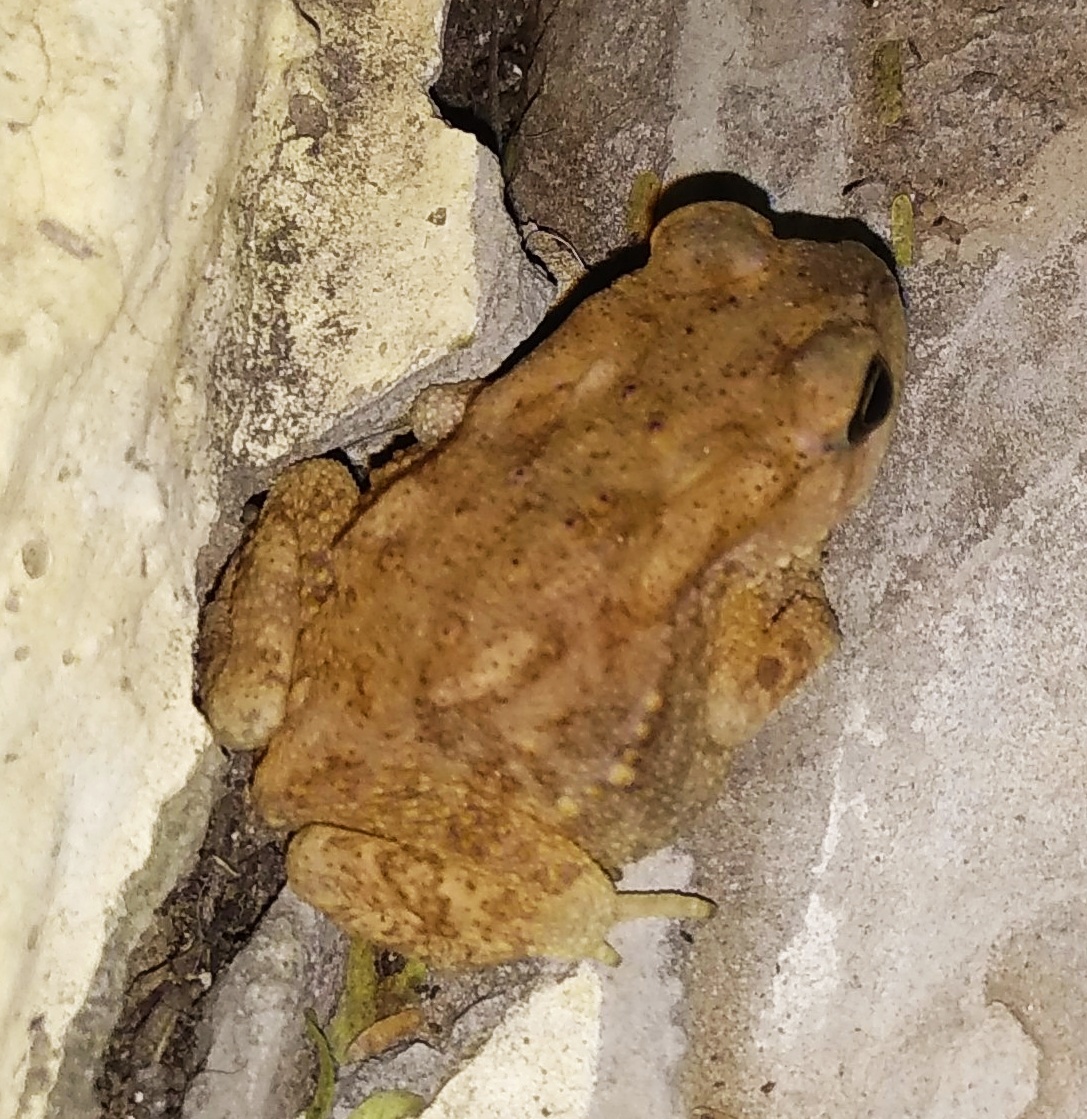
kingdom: Animalia
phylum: Chordata
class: Amphibia
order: Anura
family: Bufonidae
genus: Duttaphrynus
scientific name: Duttaphrynus melanostictus
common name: Common sunda toad
